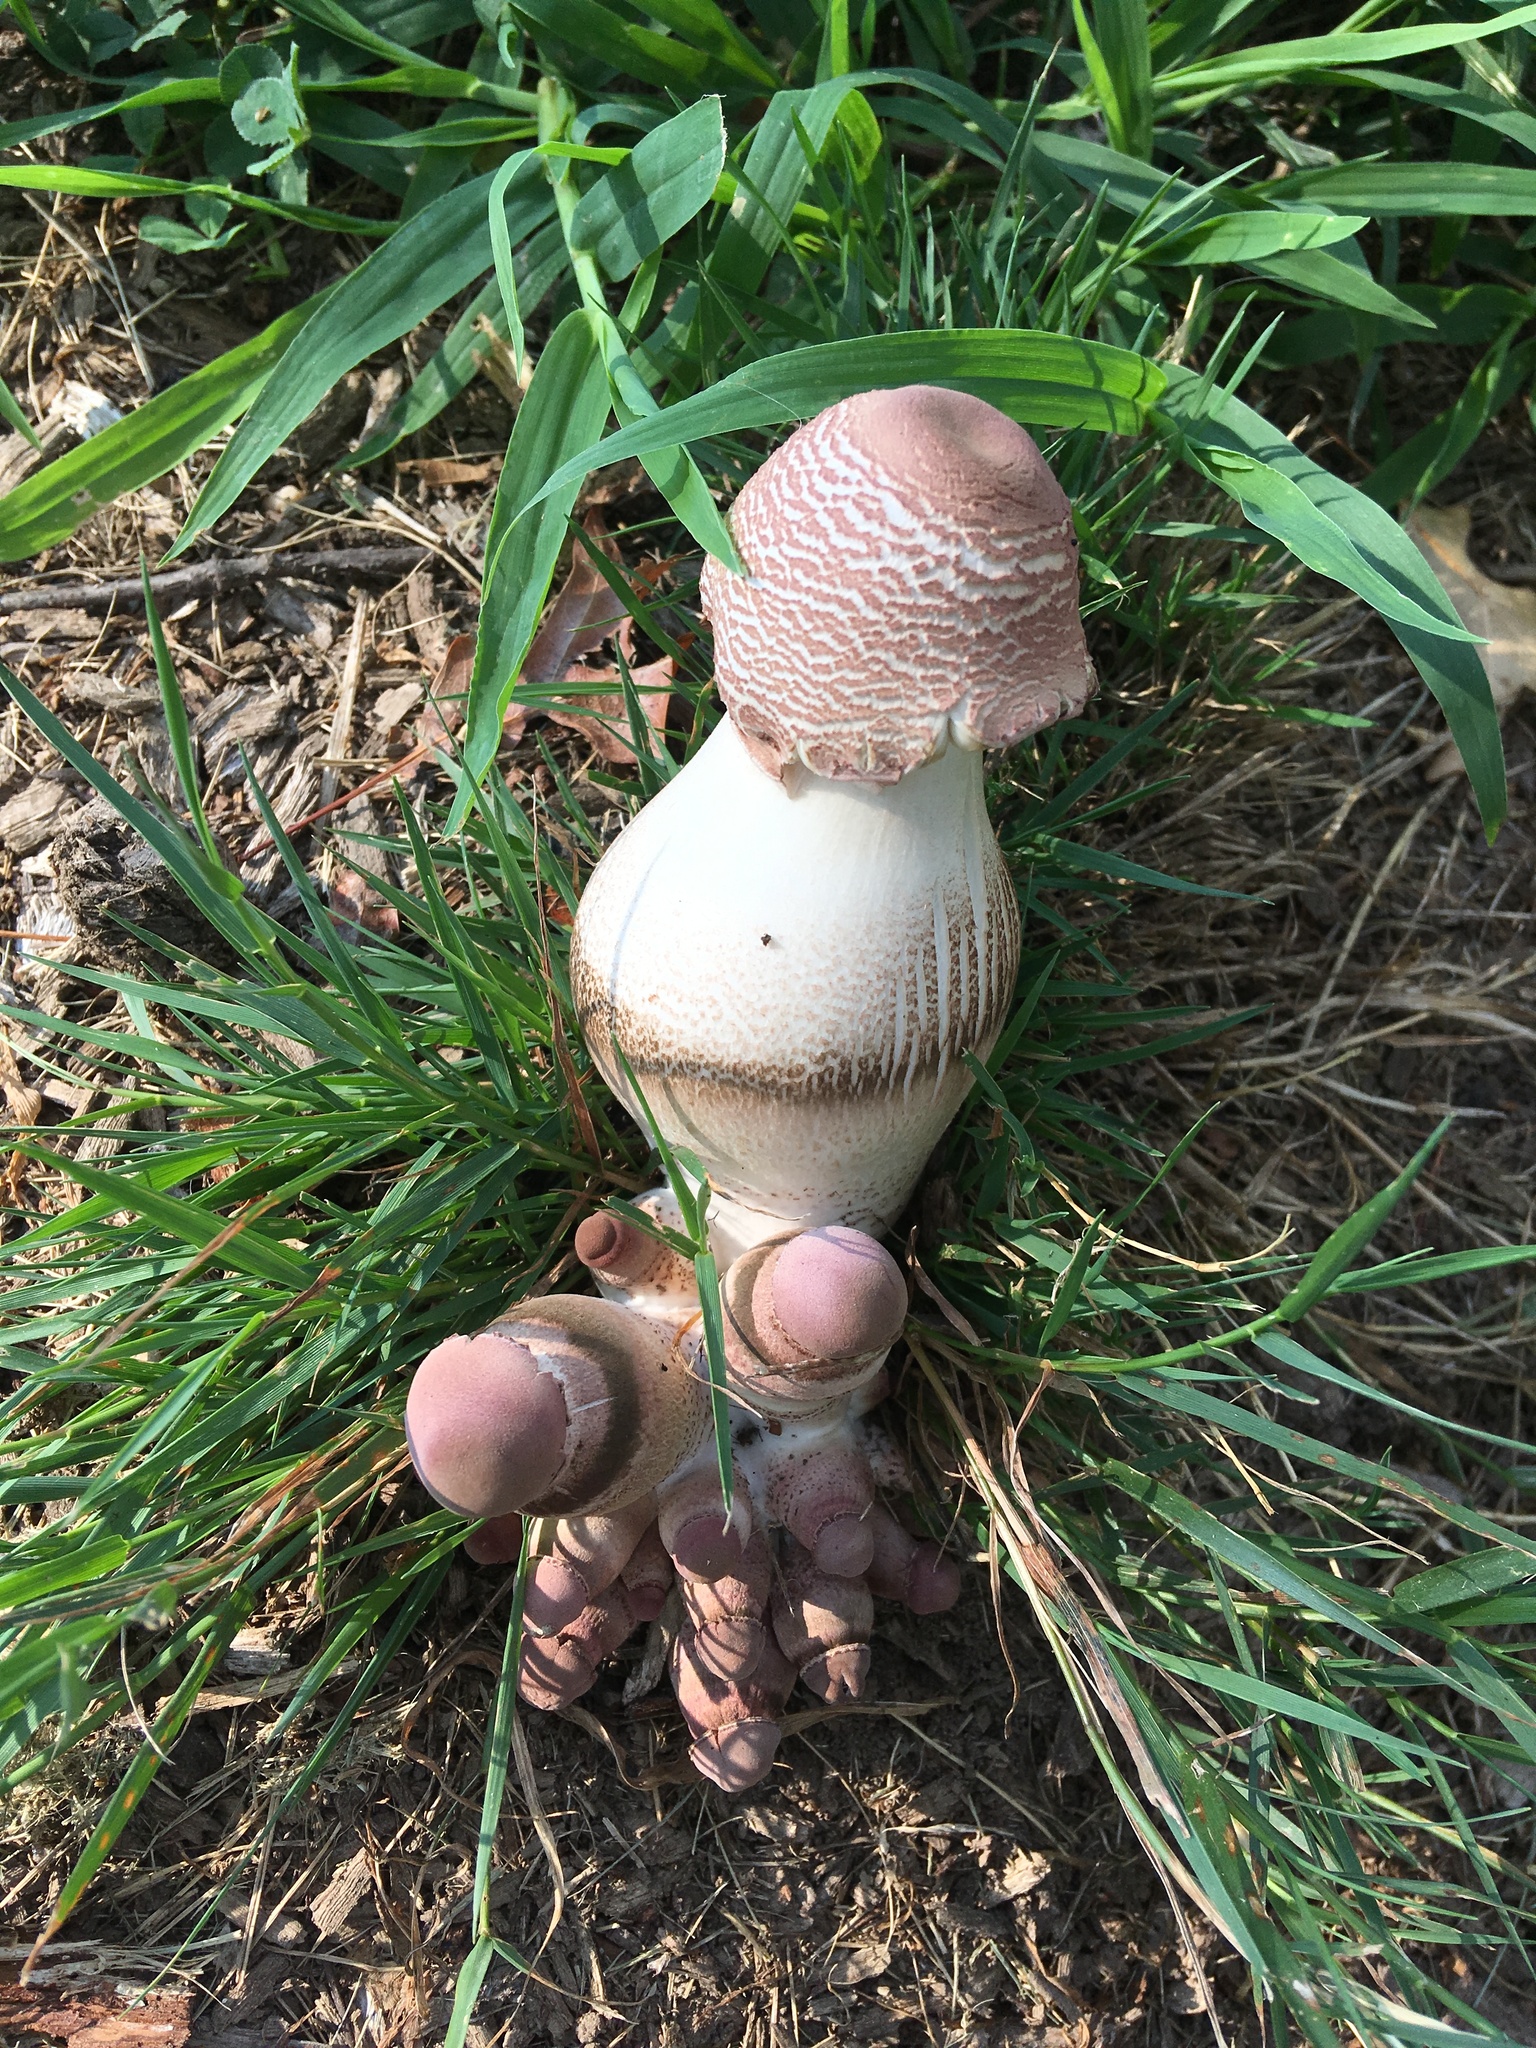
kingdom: Fungi
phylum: Basidiomycota
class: Agaricomycetes
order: Agaricales
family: Agaricaceae
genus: Leucoagaricus
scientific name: Leucoagaricus americanus
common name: Reddening lepiota
